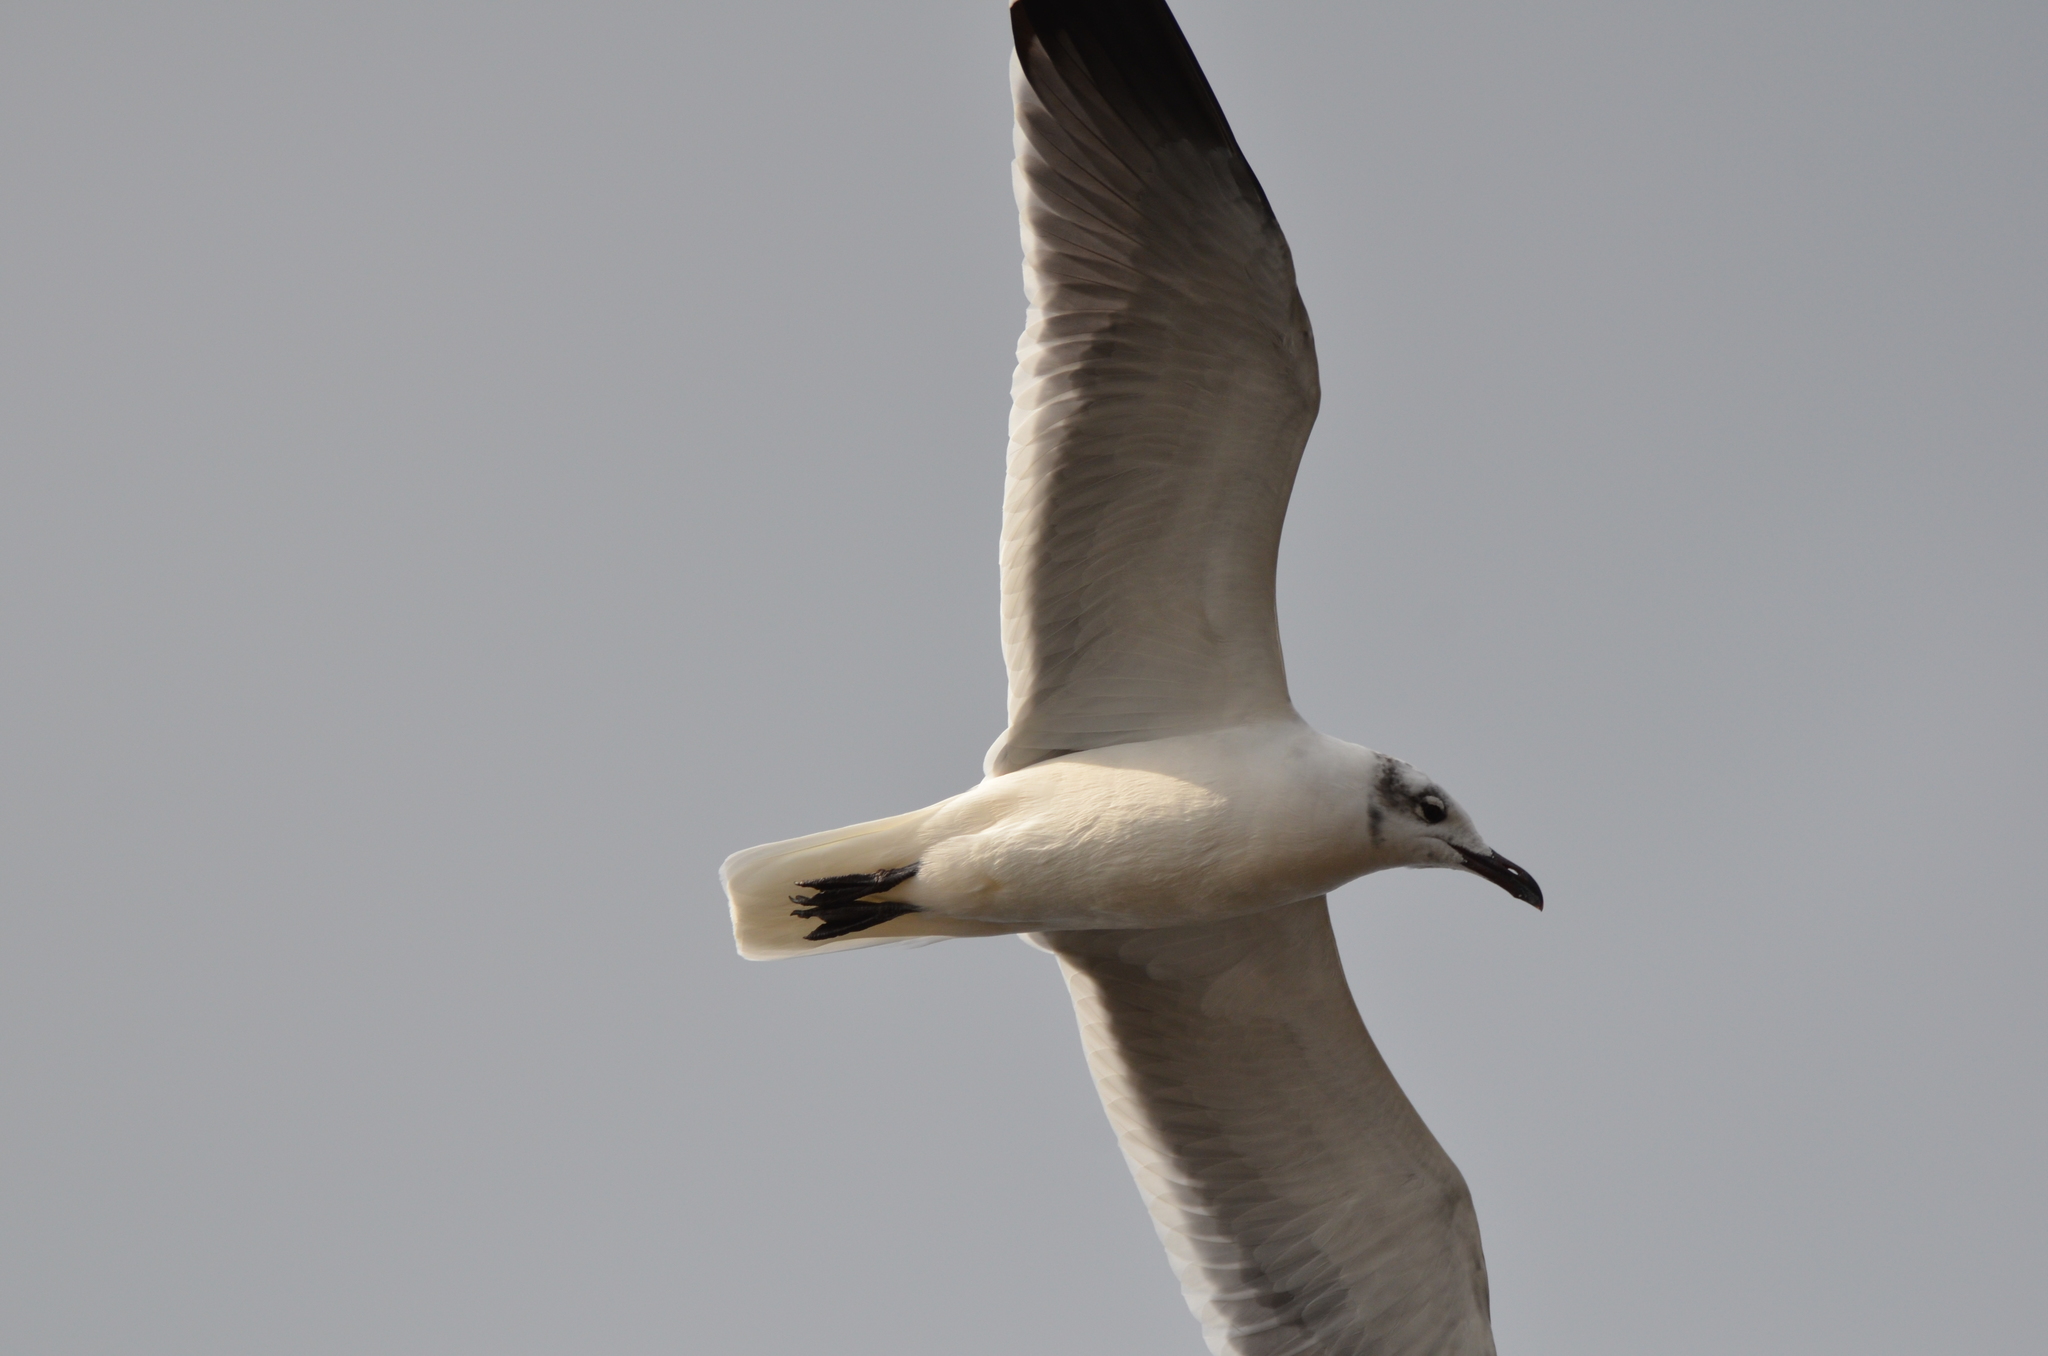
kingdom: Animalia
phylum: Chordata
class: Aves
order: Charadriiformes
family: Laridae
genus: Leucophaeus
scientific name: Leucophaeus atricilla
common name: Laughing gull
